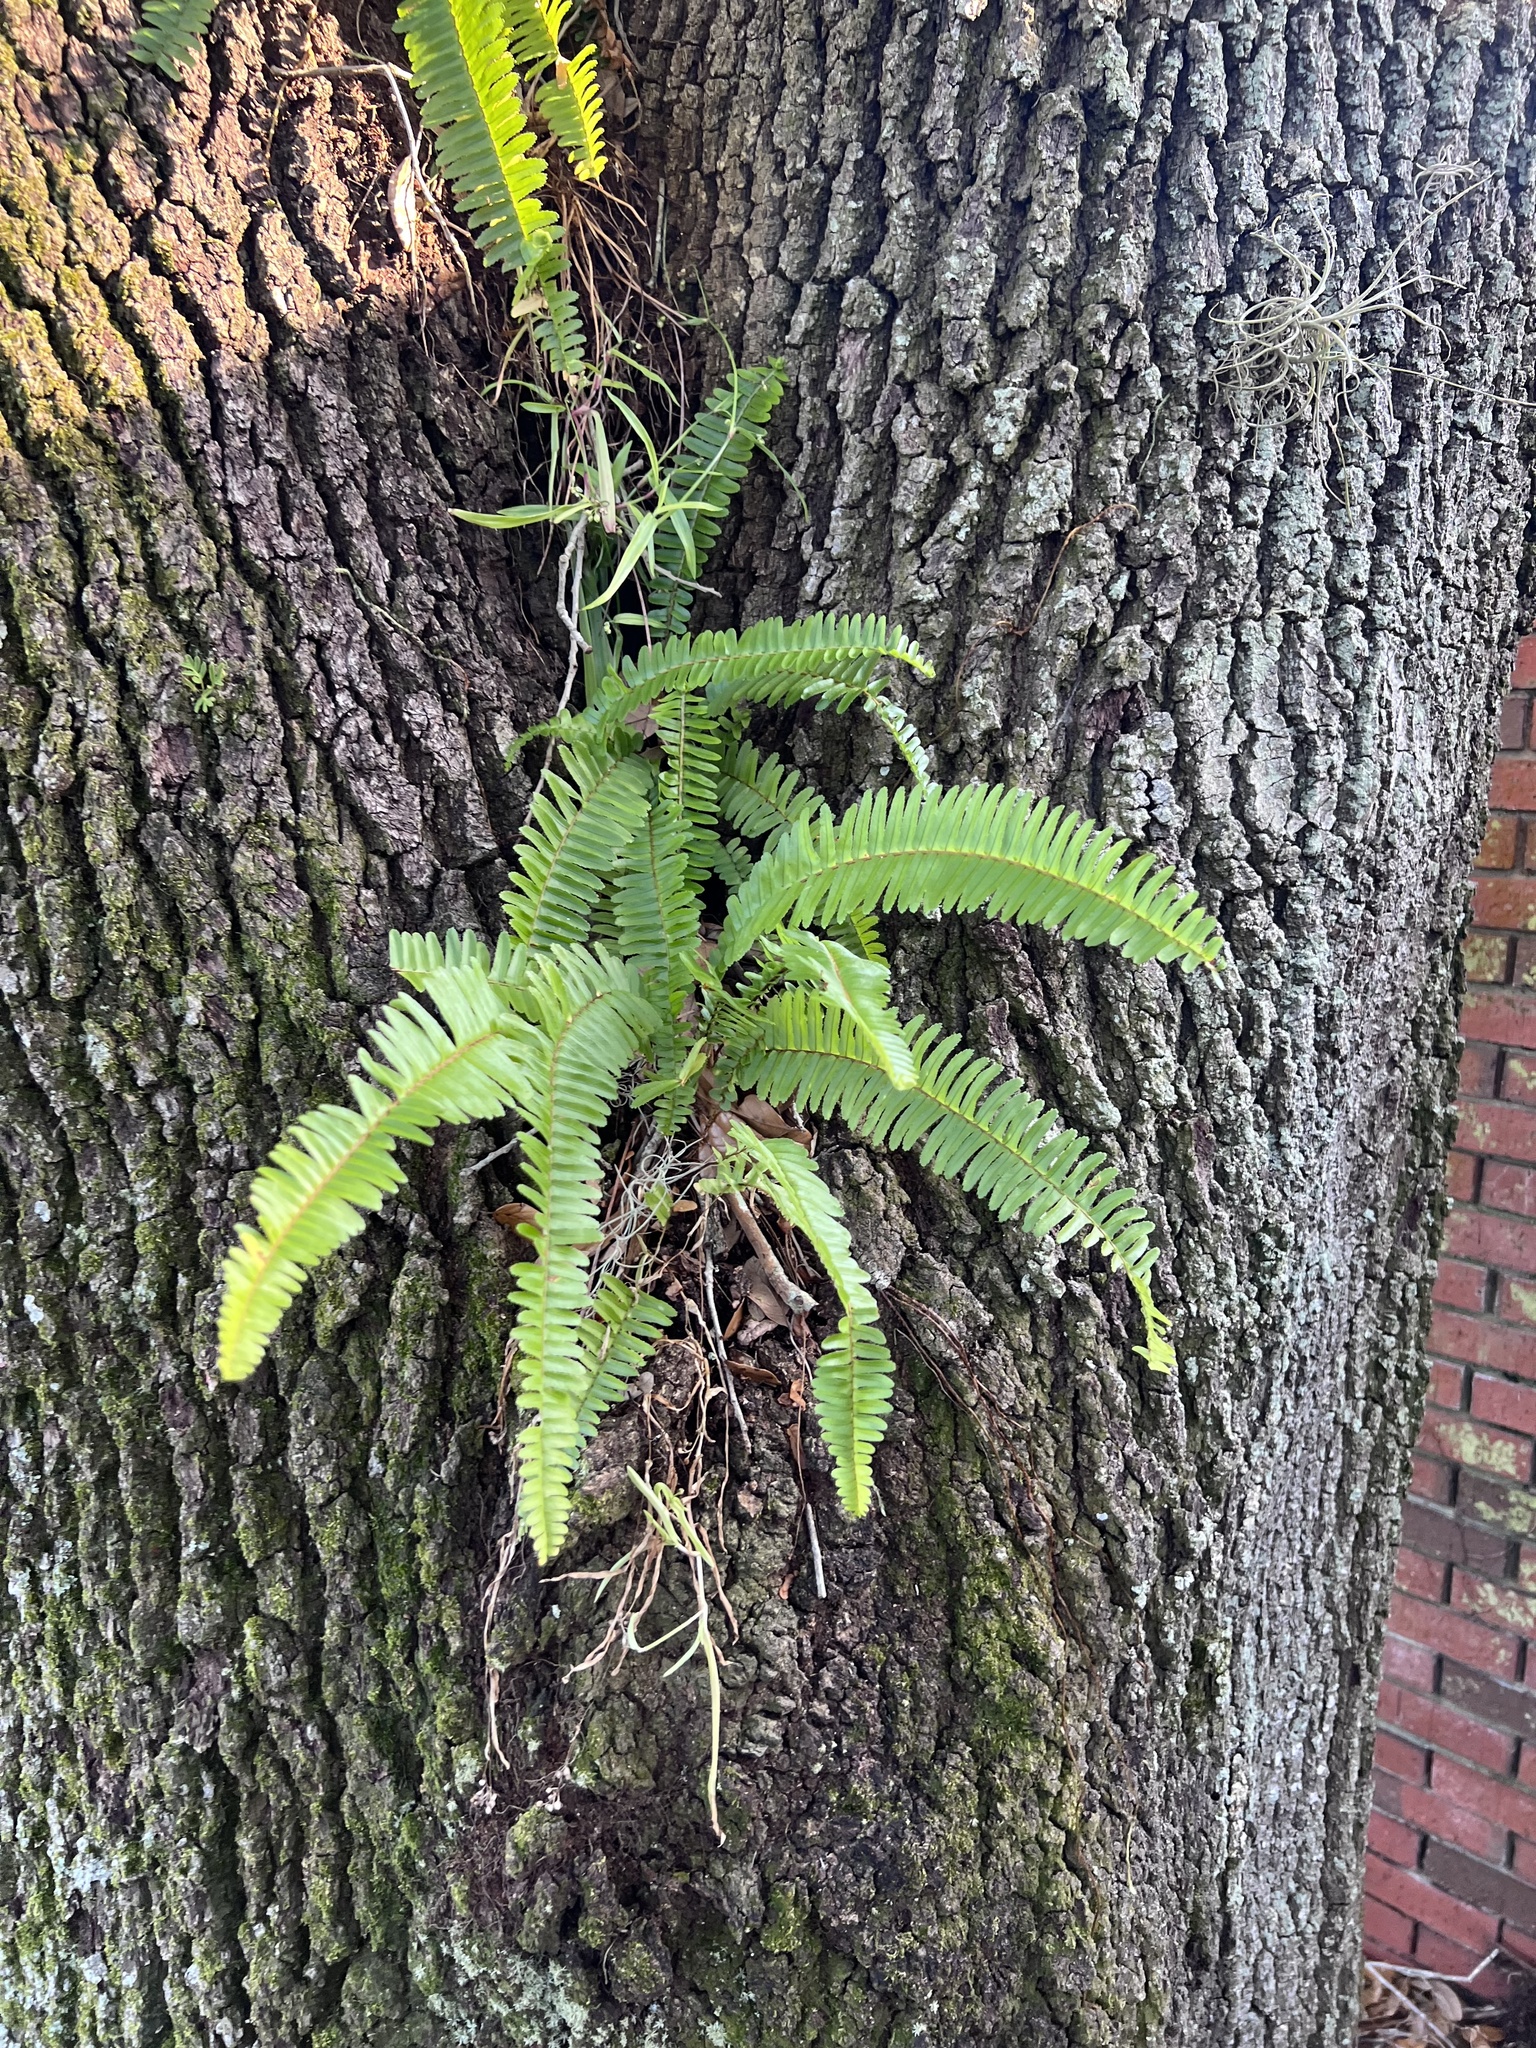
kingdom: Plantae
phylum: Tracheophyta
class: Polypodiopsida
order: Polypodiales
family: Nephrolepidaceae
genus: Nephrolepis
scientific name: Nephrolepis cordifolia
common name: Narrow swordfern
